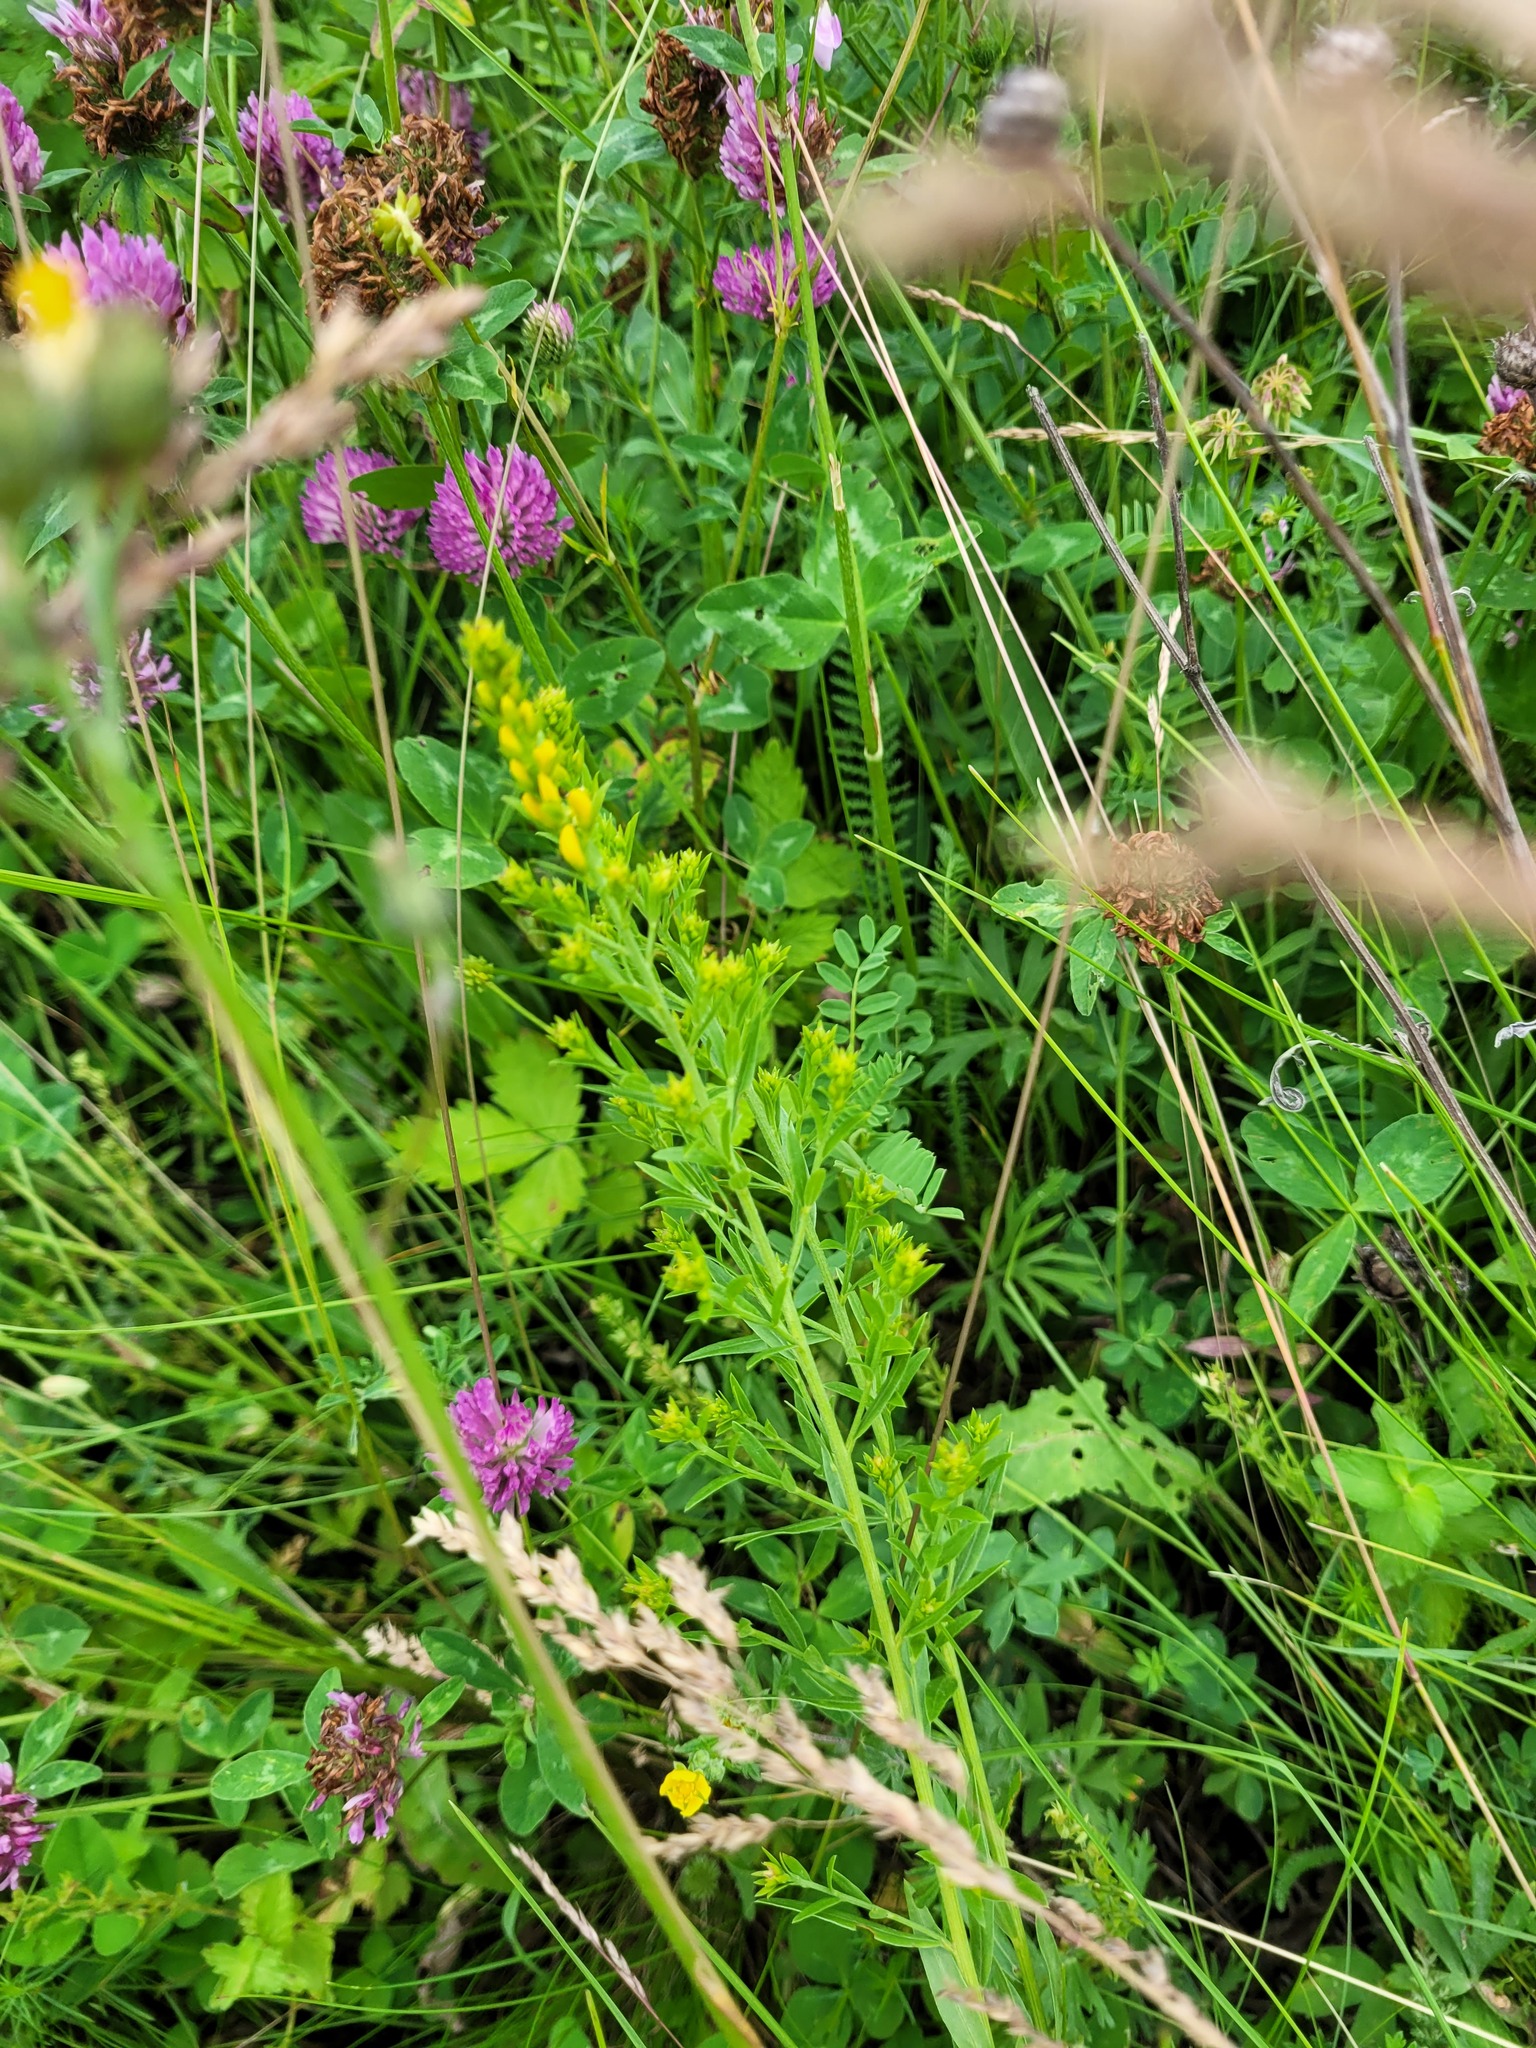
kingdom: Plantae
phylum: Tracheophyta
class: Magnoliopsida
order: Fabales
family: Fabaceae
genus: Genista
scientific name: Genista tinctoria
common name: Dyer's greenweed
